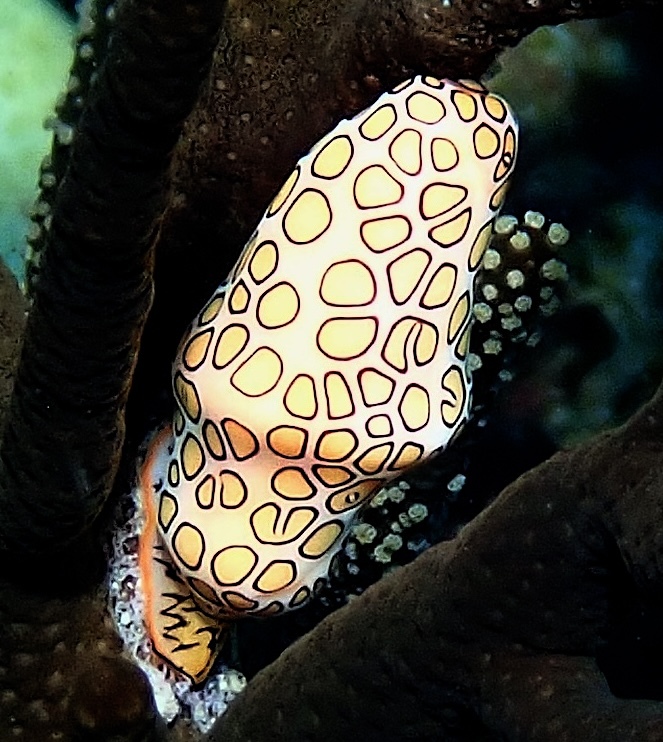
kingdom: Animalia
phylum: Mollusca
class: Gastropoda
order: Littorinimorpha
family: Ovulidae
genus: Cyphoma
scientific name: Cyphoma gibbosum
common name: Flamingo tongue
